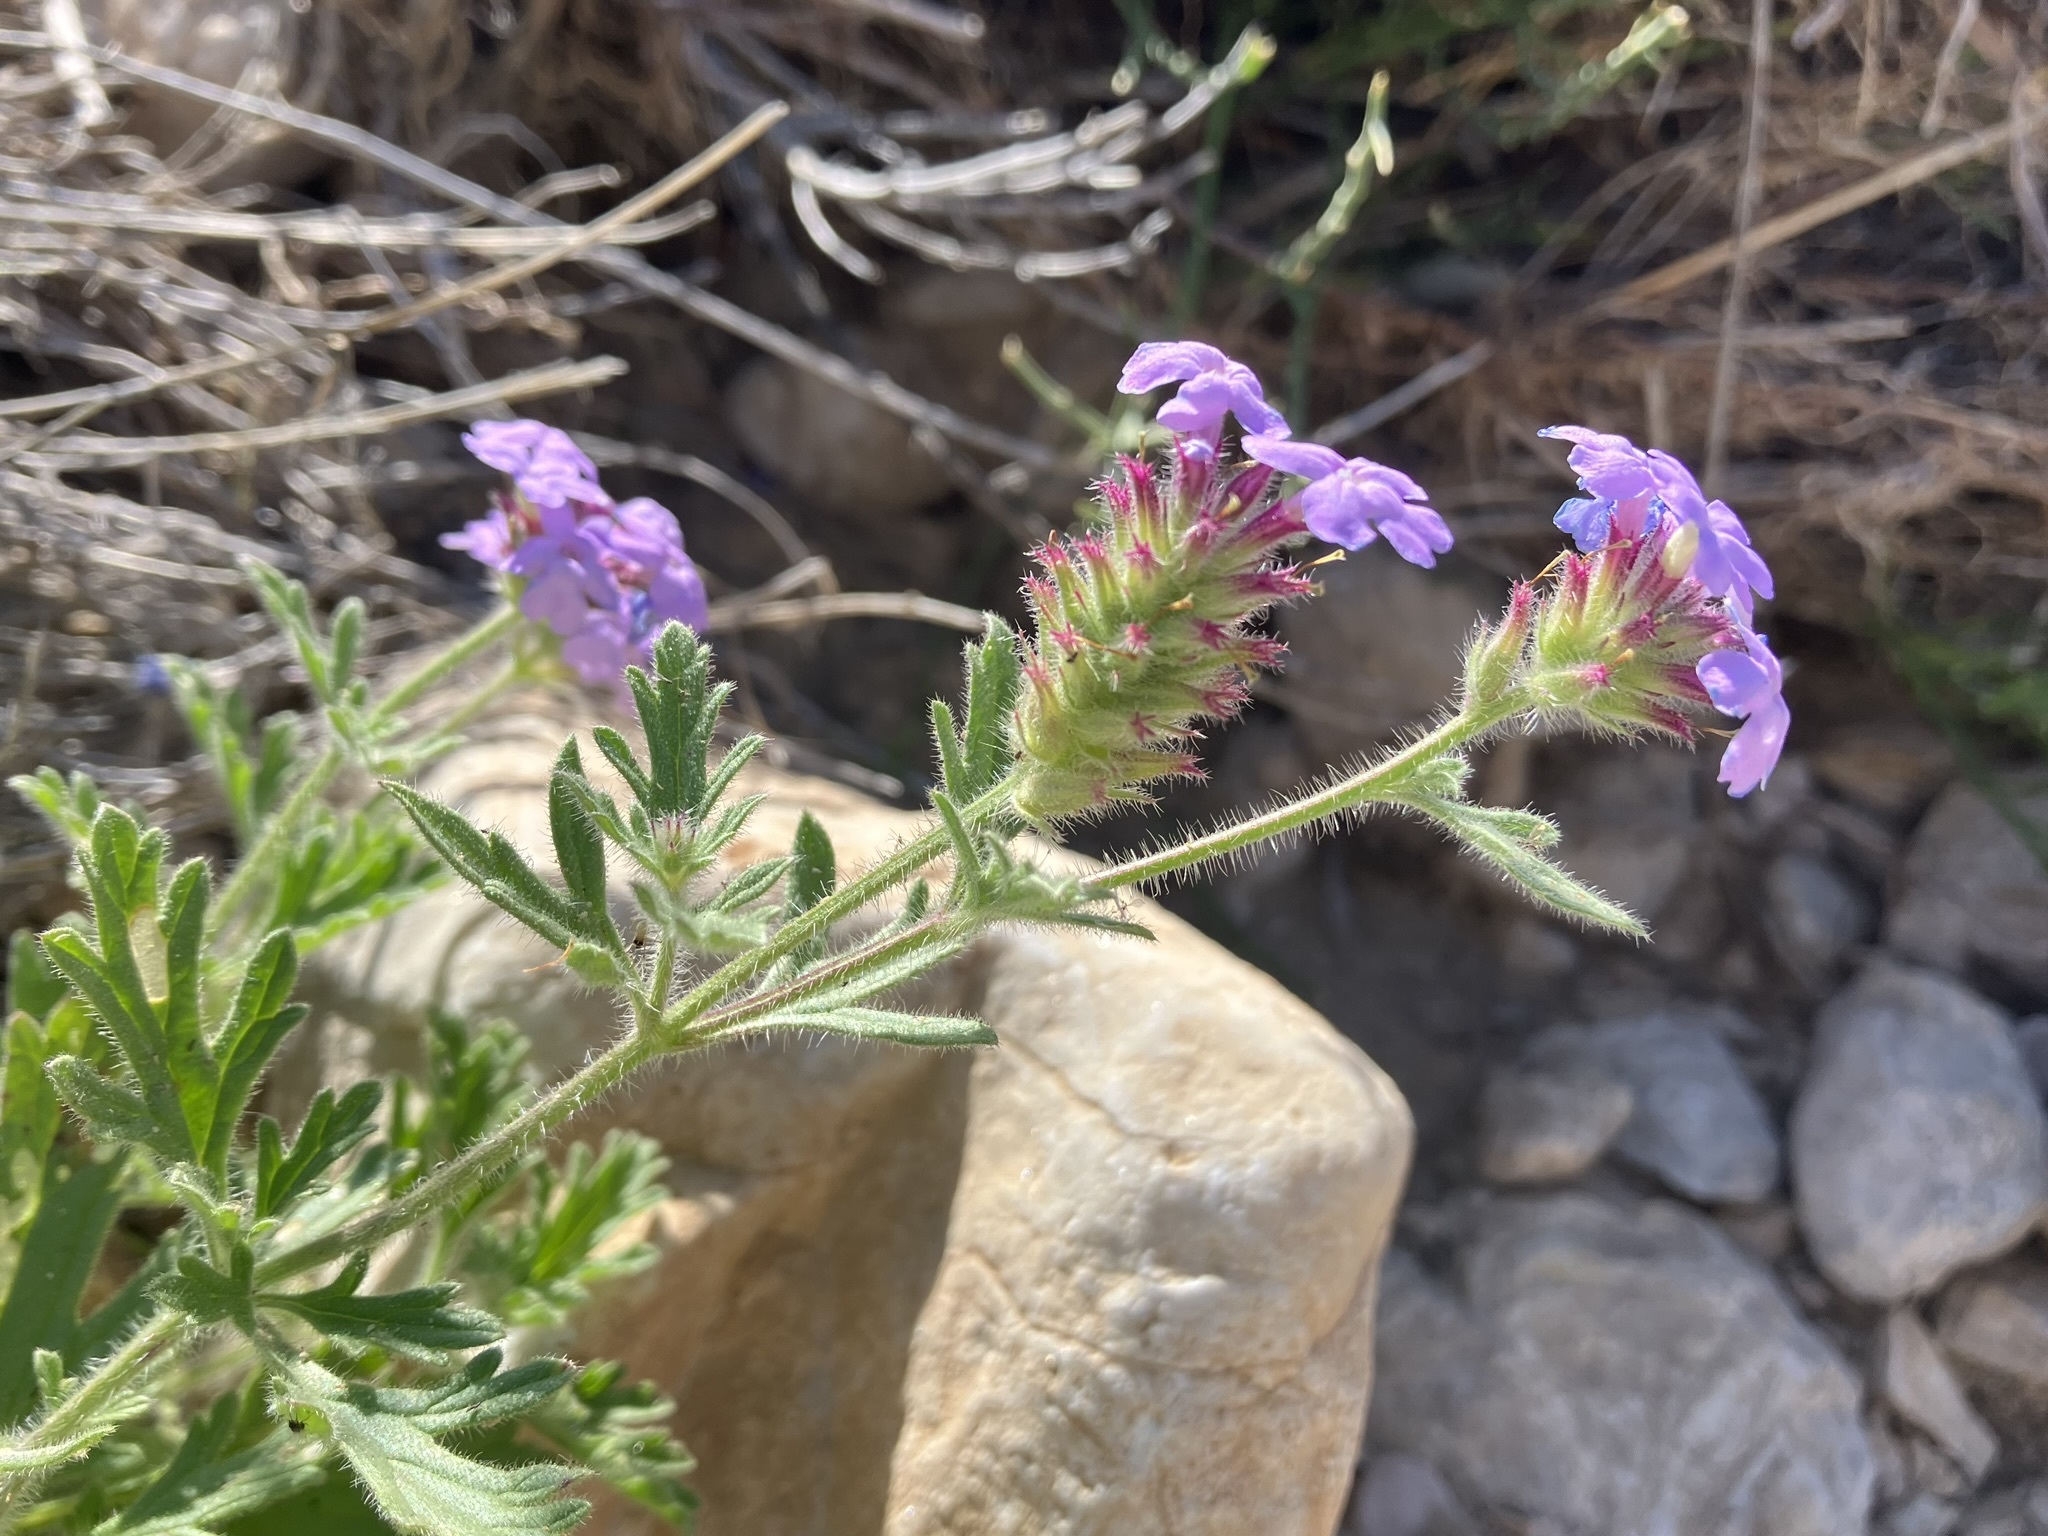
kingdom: Plantae
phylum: Tracheophyta
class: Magnoliopsida
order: Lamiales
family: Verbenaceae
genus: Verbena
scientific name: Verbena gooddingii
